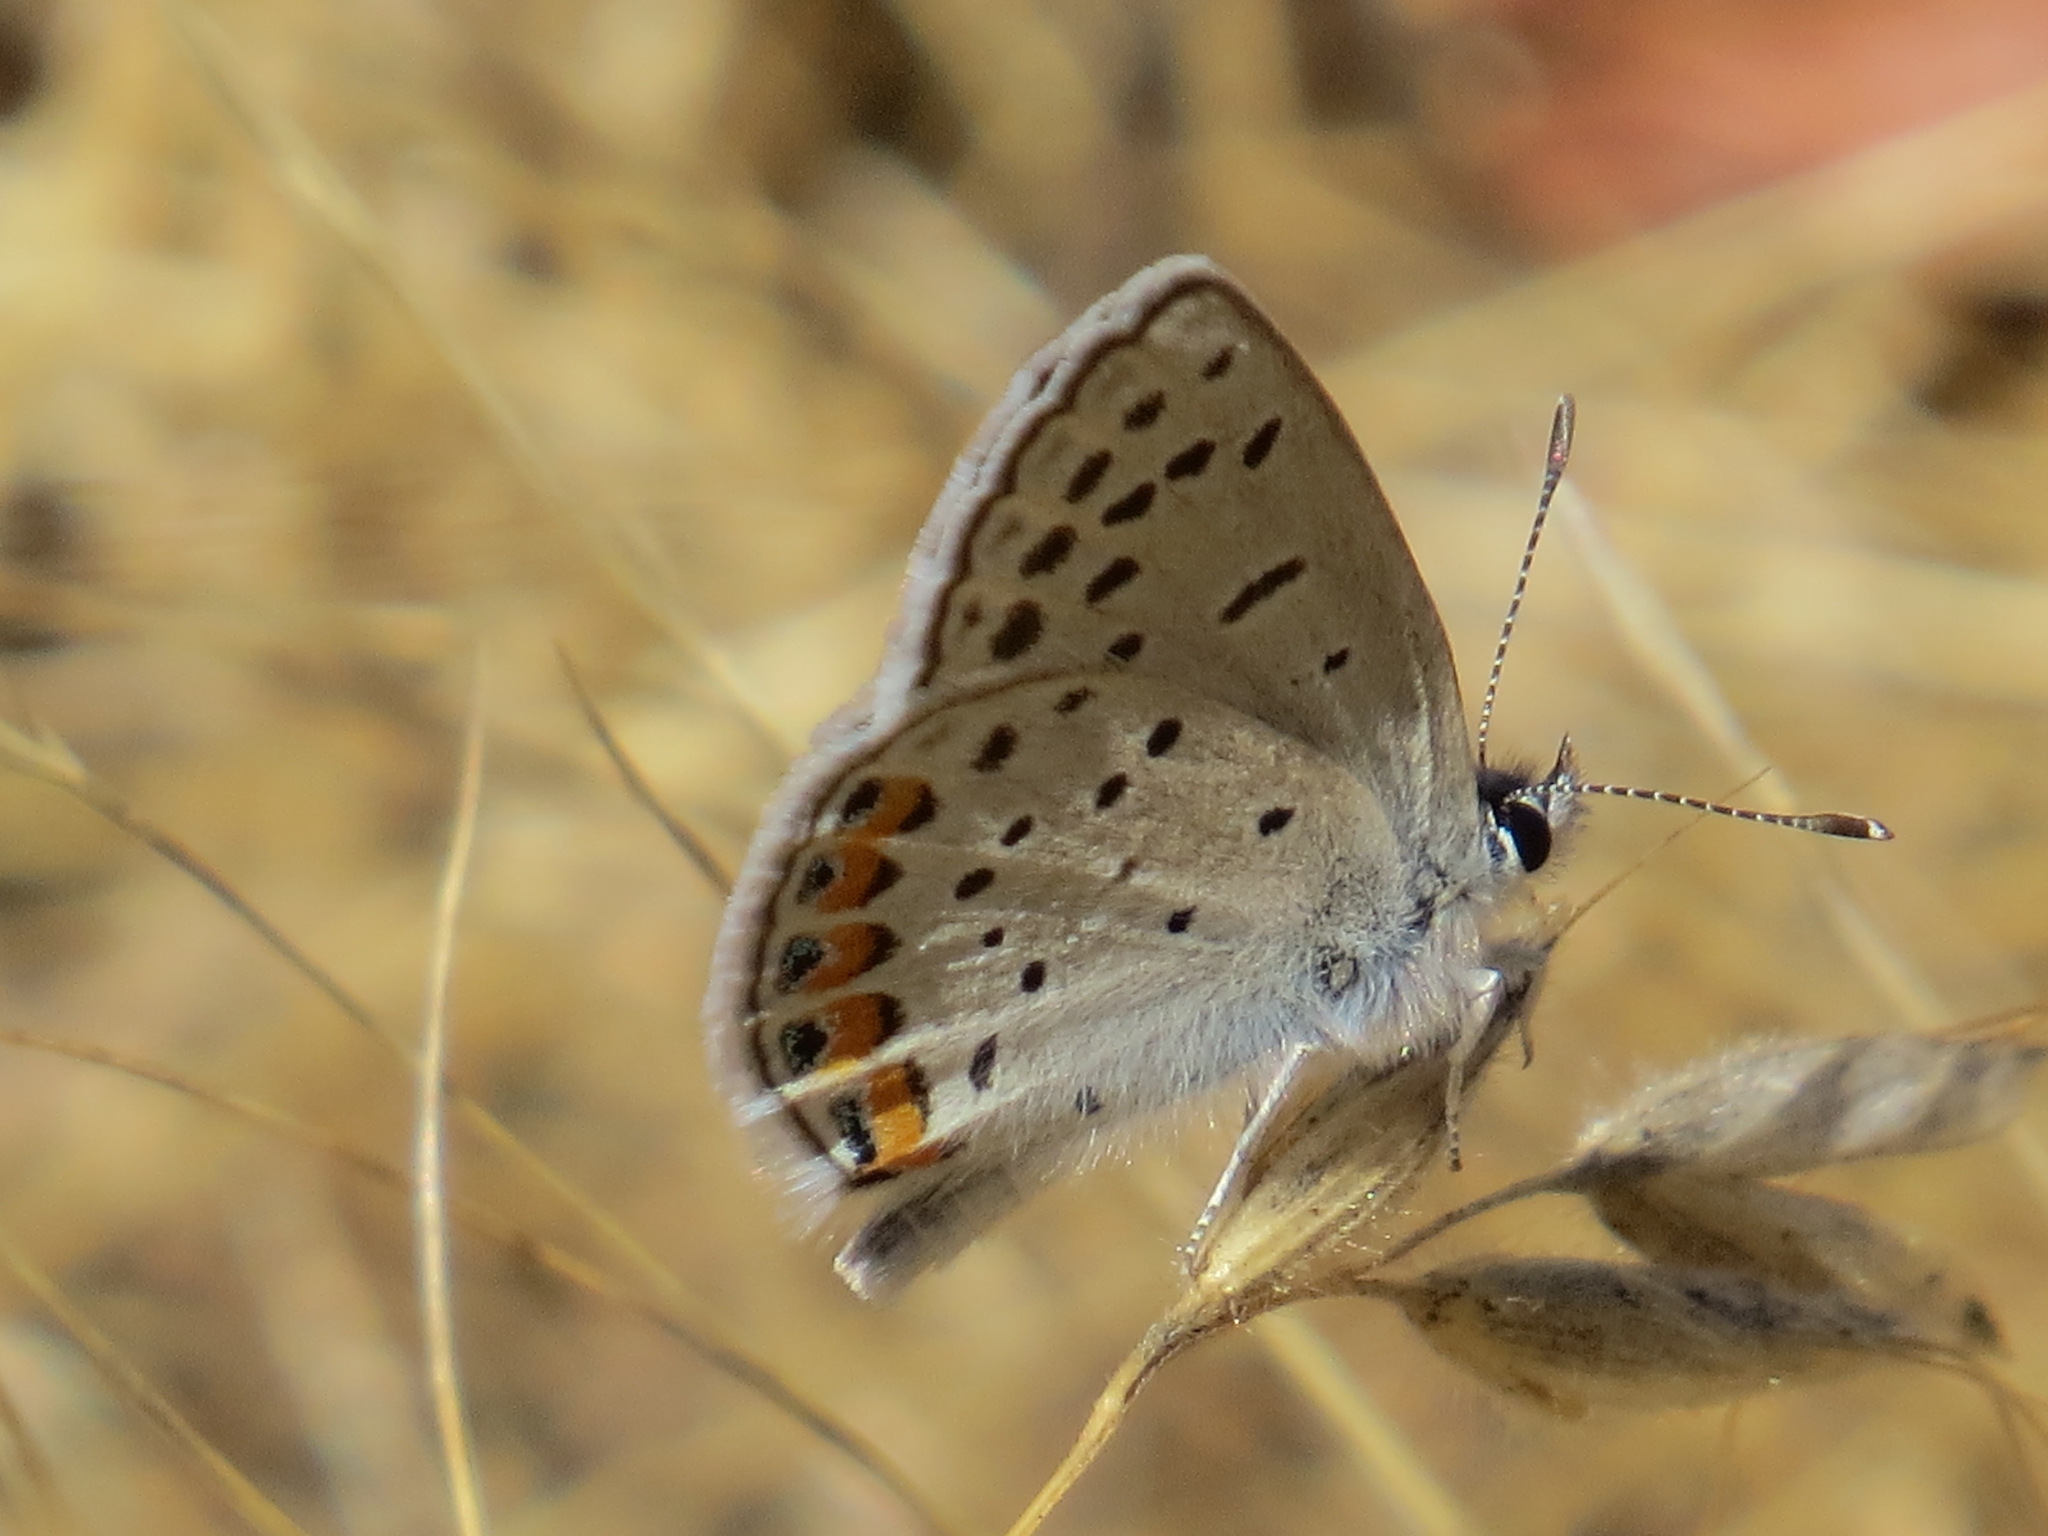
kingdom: Animalia
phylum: Arthropoda
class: Insecta
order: Lepidoptera
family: Lycaenidae
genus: Icaricia
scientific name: Icaricia acmon
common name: Acmon blue
